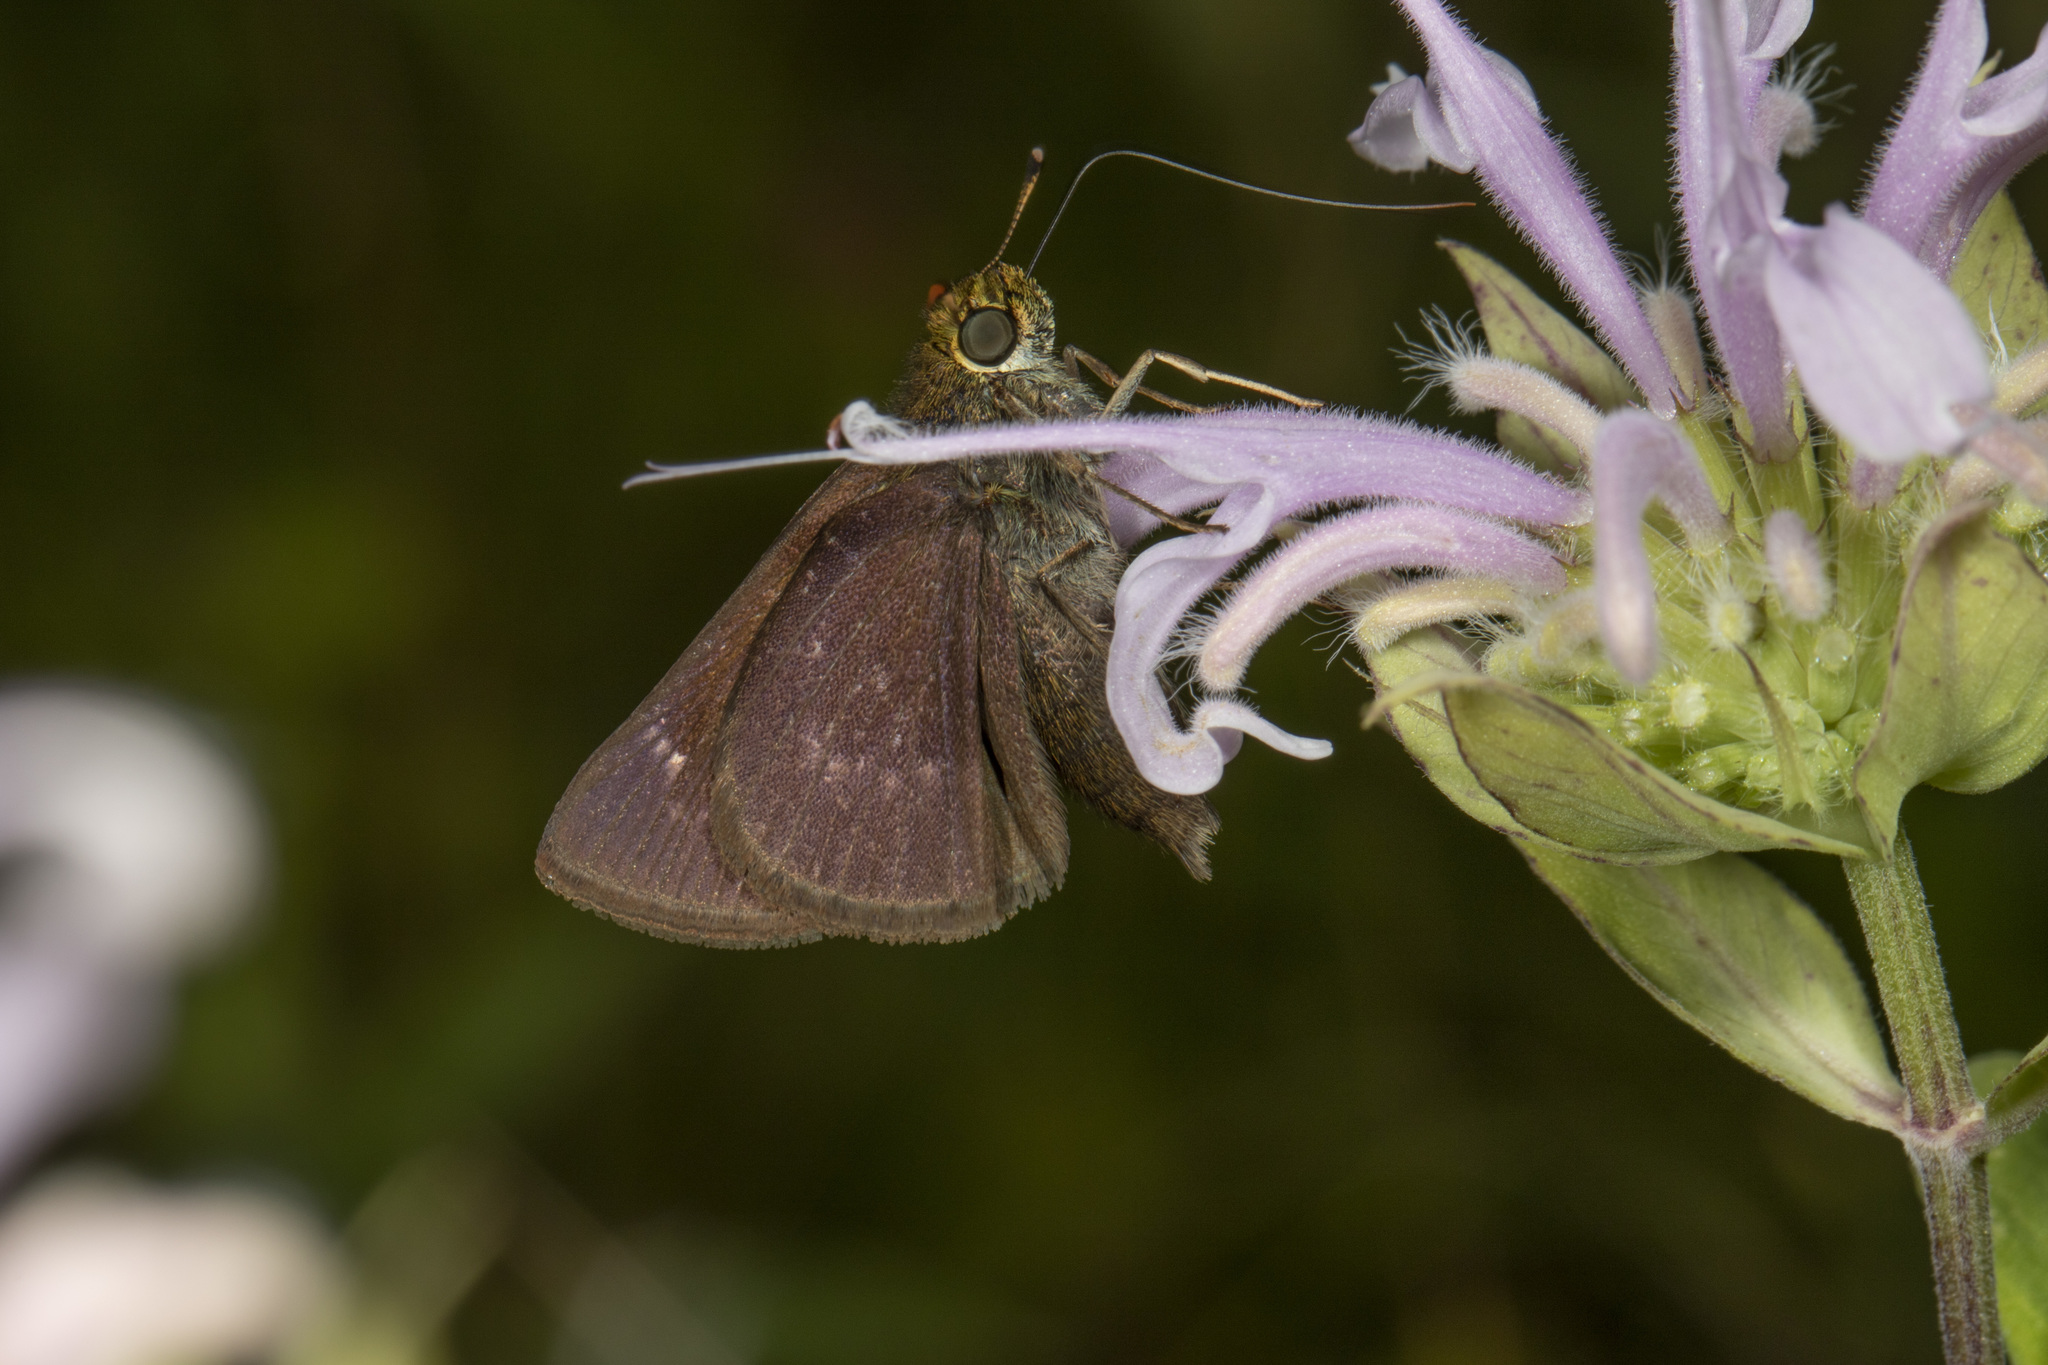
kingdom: Animalia
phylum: Arthropoda
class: Insecta
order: Lepidoptera
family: Hesperiidae
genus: Euphyes
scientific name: Euphyes vestris
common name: Dun skipper
